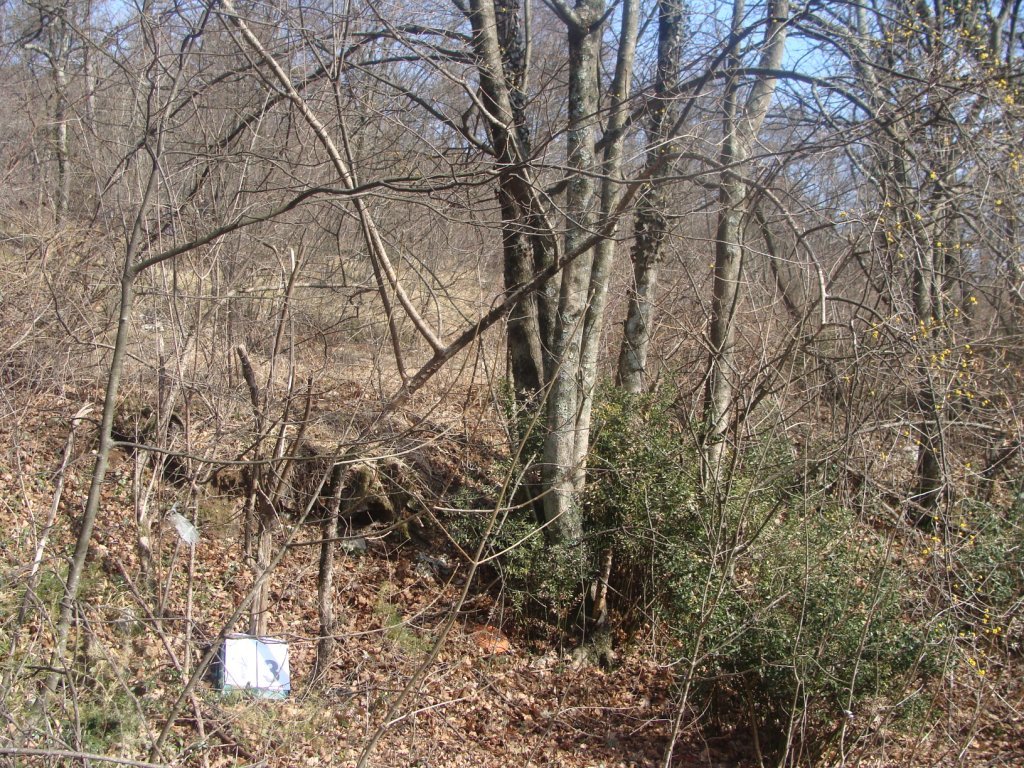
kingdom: Plantae
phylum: Tracheophyta
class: Magnoliopsida
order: Cornales
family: Cornaceae
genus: Cornus
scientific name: Cornus mas
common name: Cornelian-cherry
